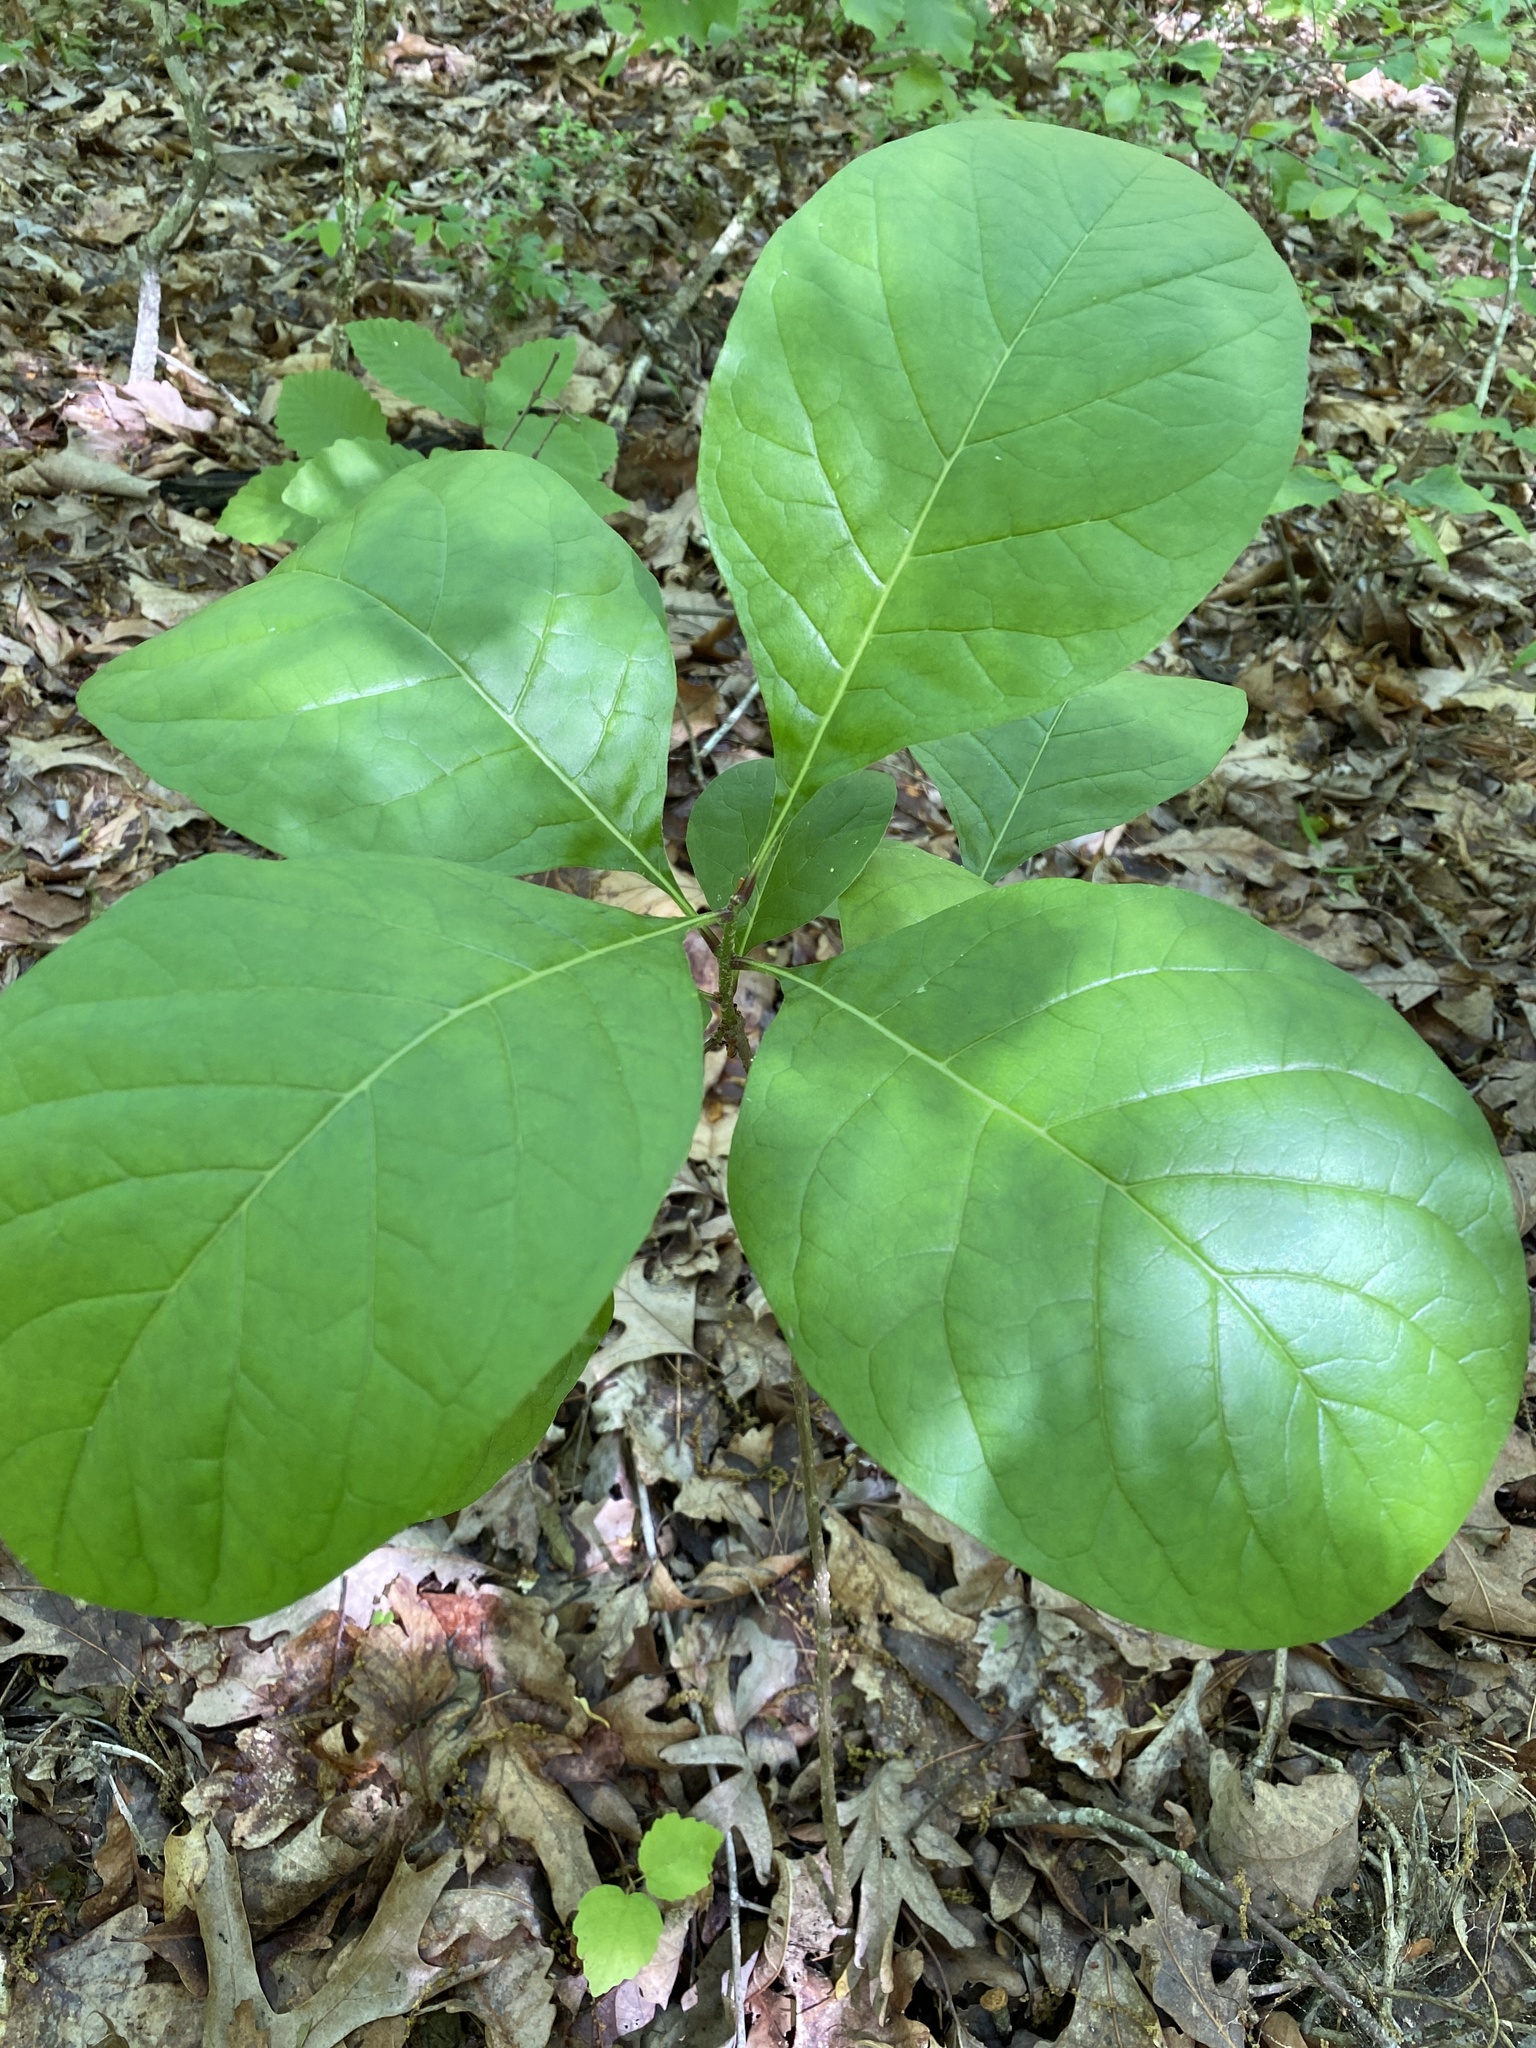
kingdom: Plantae
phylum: Tracheophyta
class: Magnoliopsida
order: Lamiales
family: Oleaceae
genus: Chionanthus
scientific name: Chionanthus virginicus
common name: American fringetree
